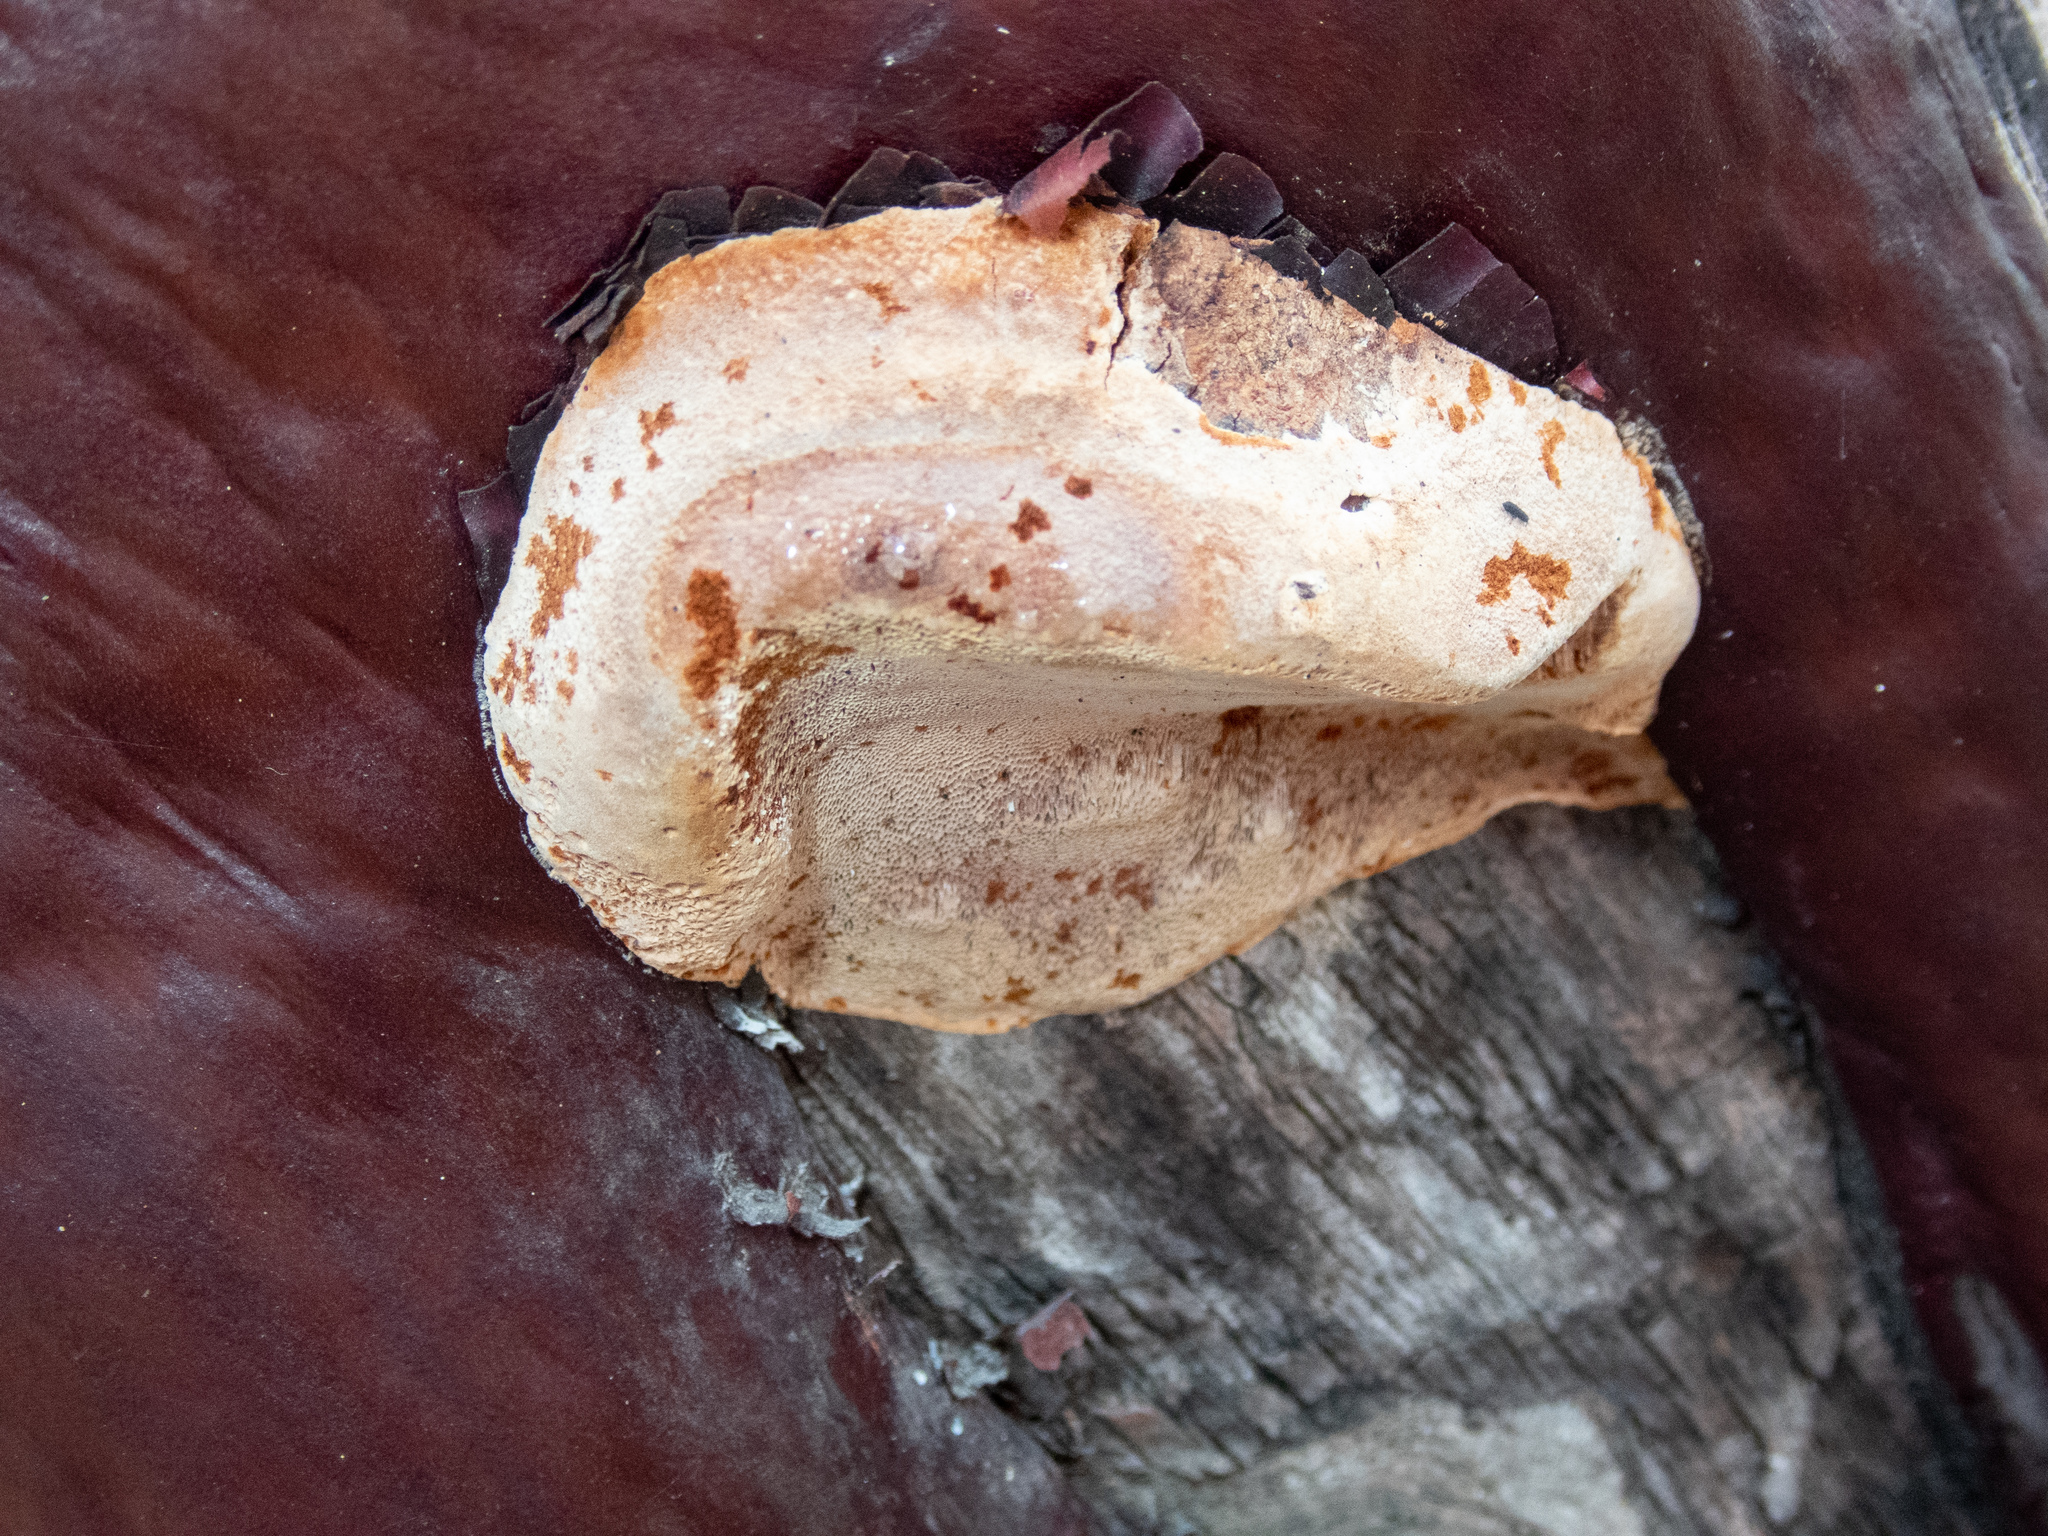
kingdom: Fungi
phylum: Basidiomycota
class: Agaricomycetes
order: Polyporales
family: Polyporaceae
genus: Fomes
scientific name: Fomes arctostaphyli
